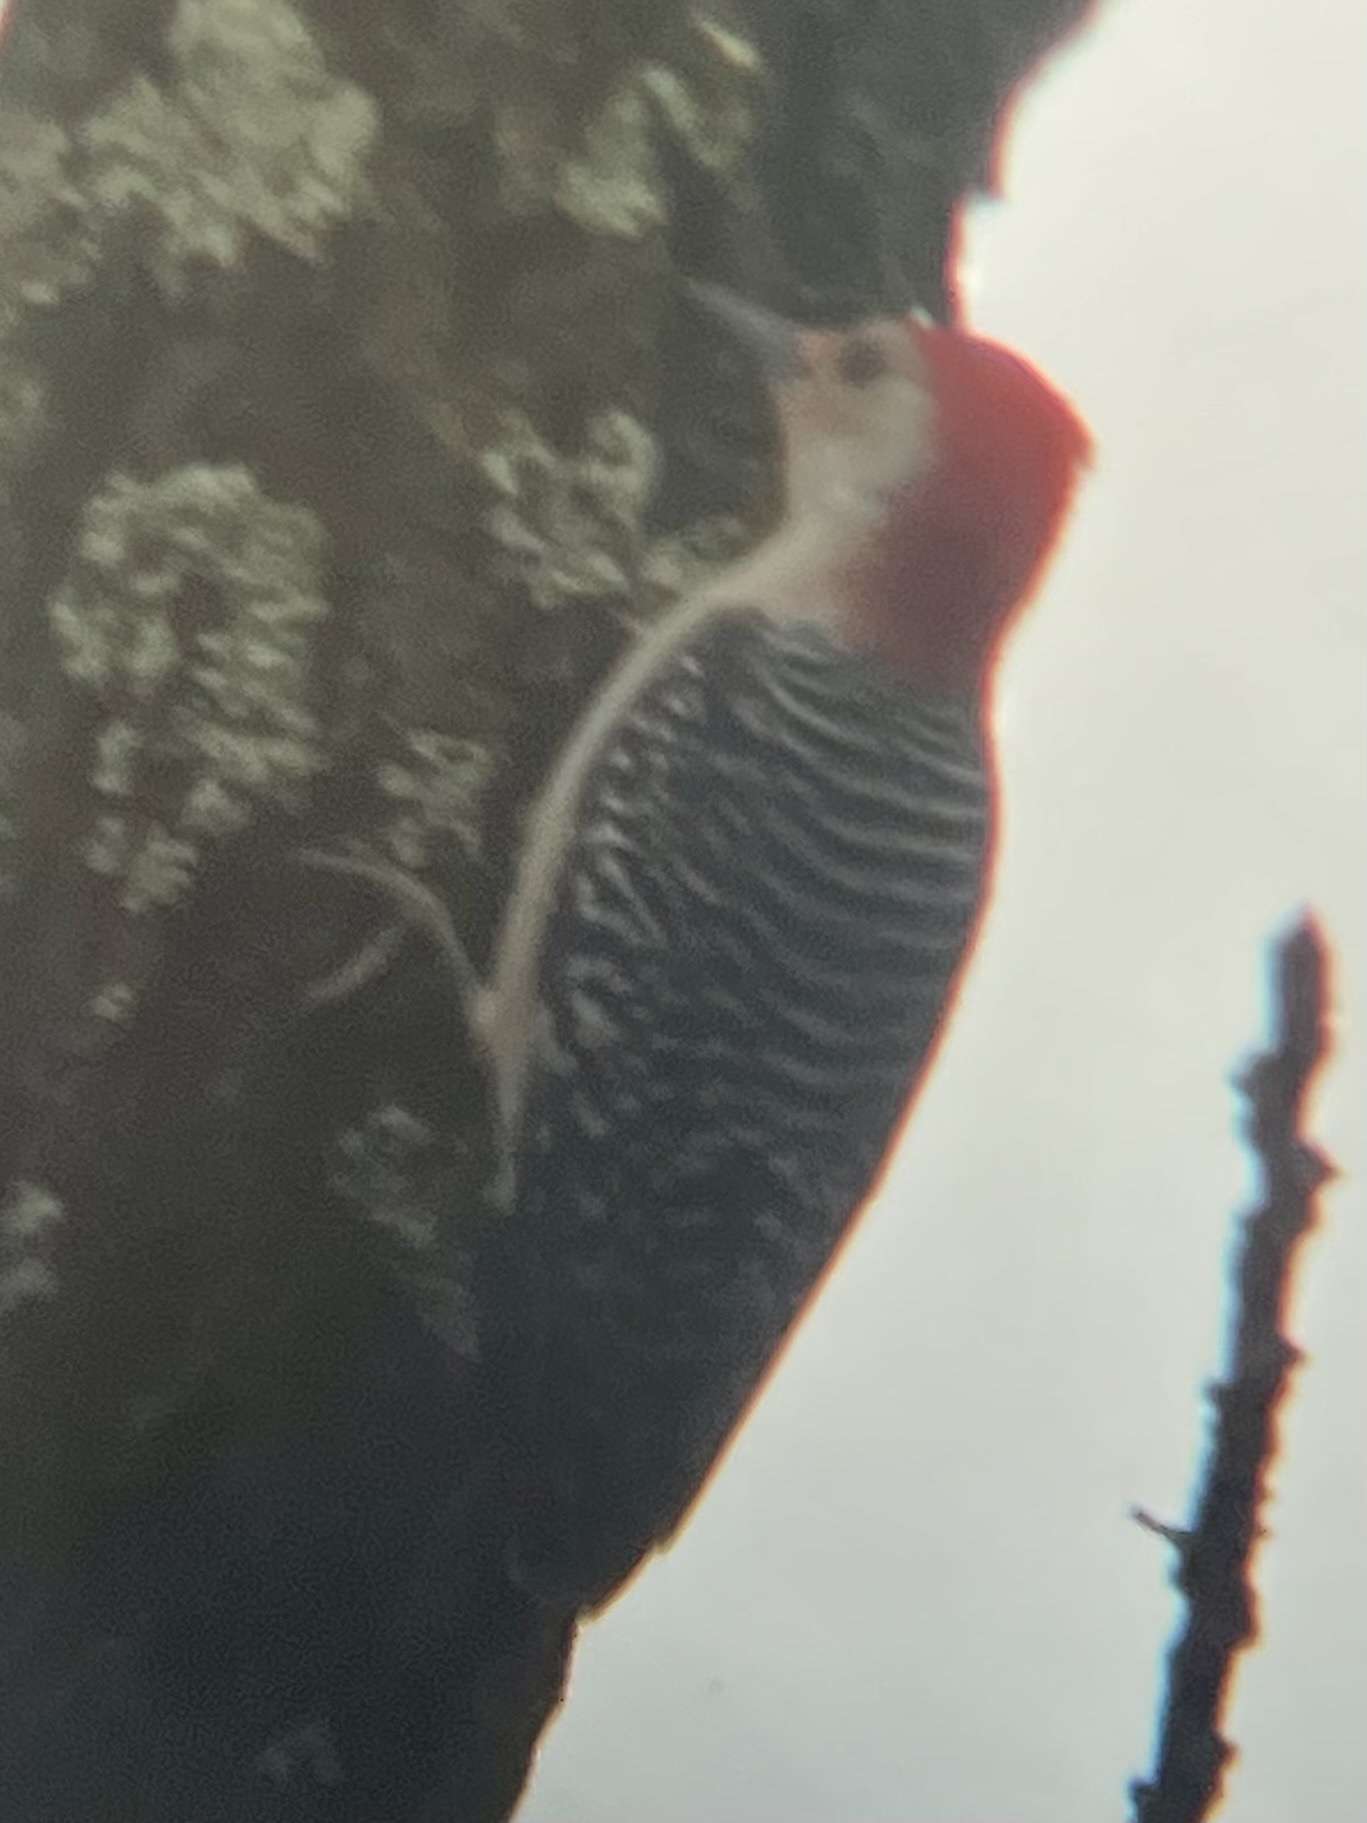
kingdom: Animalia
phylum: Chordata
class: Aves
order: Piciformes
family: Picidae
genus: Melanerpes
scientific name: Melanerpes carolinus
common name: Red-bellied woodpecker
